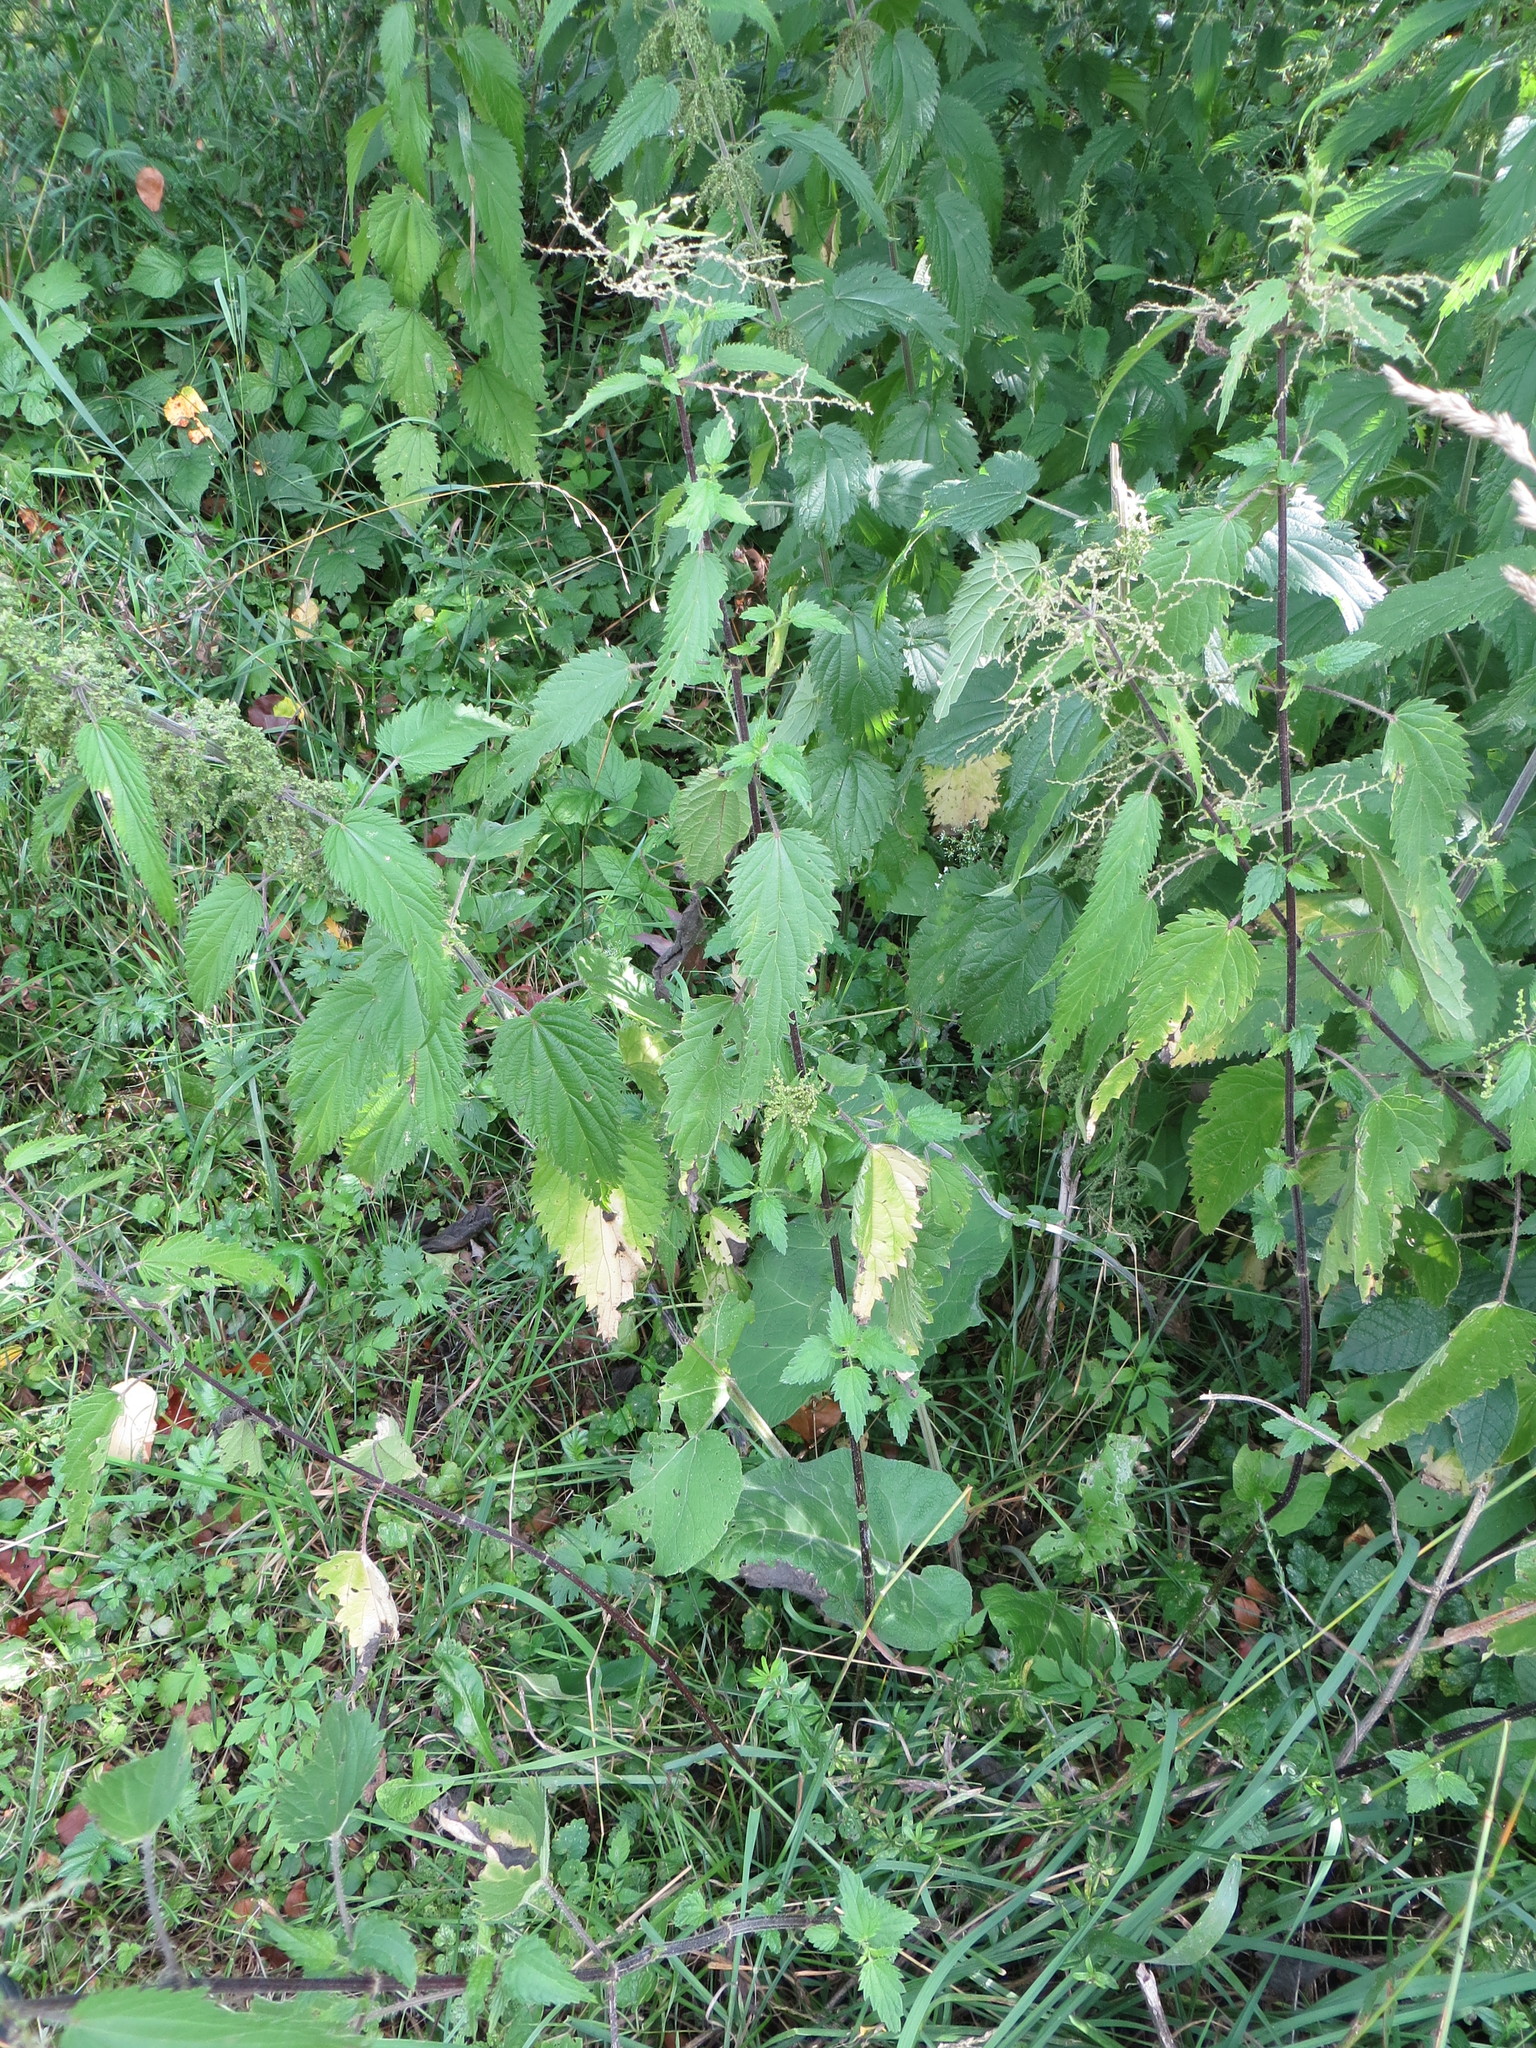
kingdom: Plantae
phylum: Tracheophyta
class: Magnoliopsida
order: Rosales
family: Urticaceae
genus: Urtica
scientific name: Urtica dioica
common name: Common nettle
